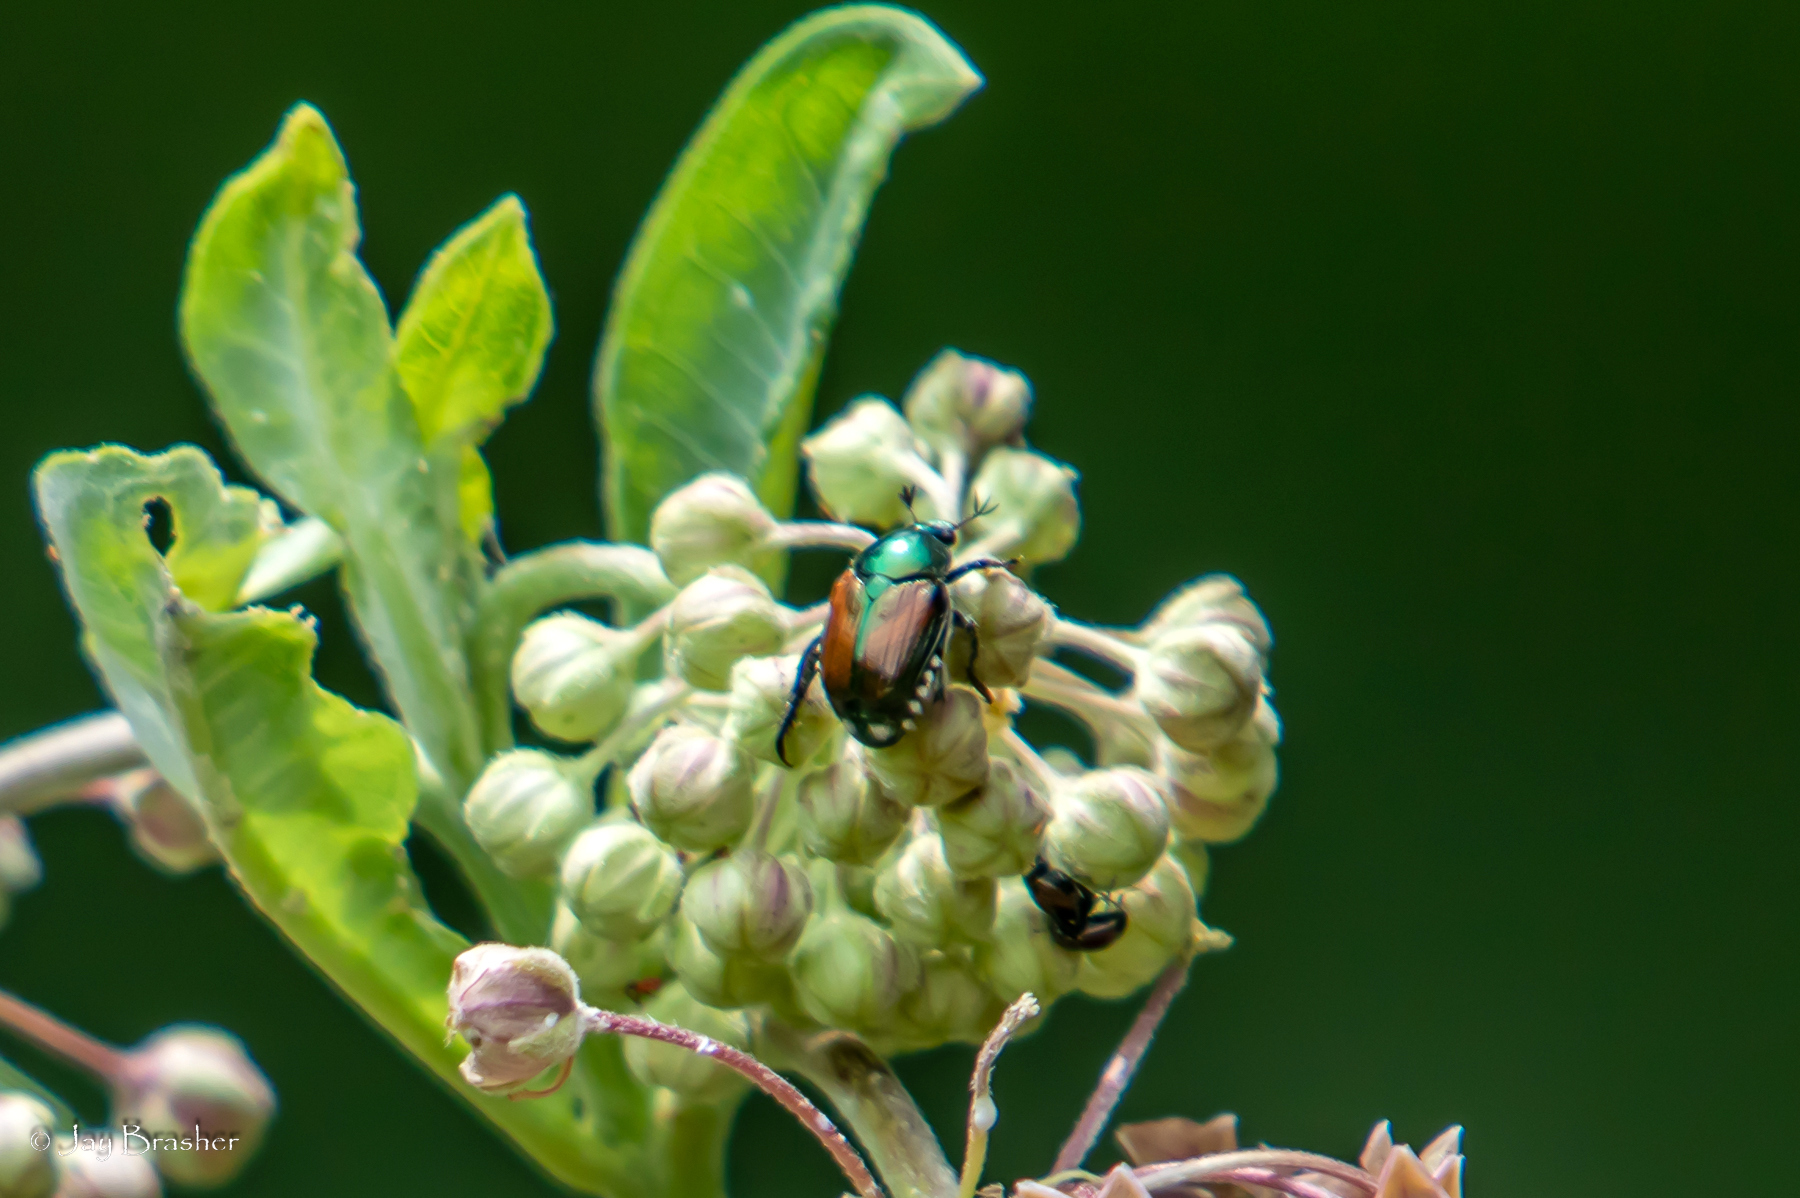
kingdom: Animalia
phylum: Arthropoda
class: Insecta
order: Coleoptera
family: Scarabaeidae
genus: Popillia
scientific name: Popillia japonica
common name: Japanese beetle
